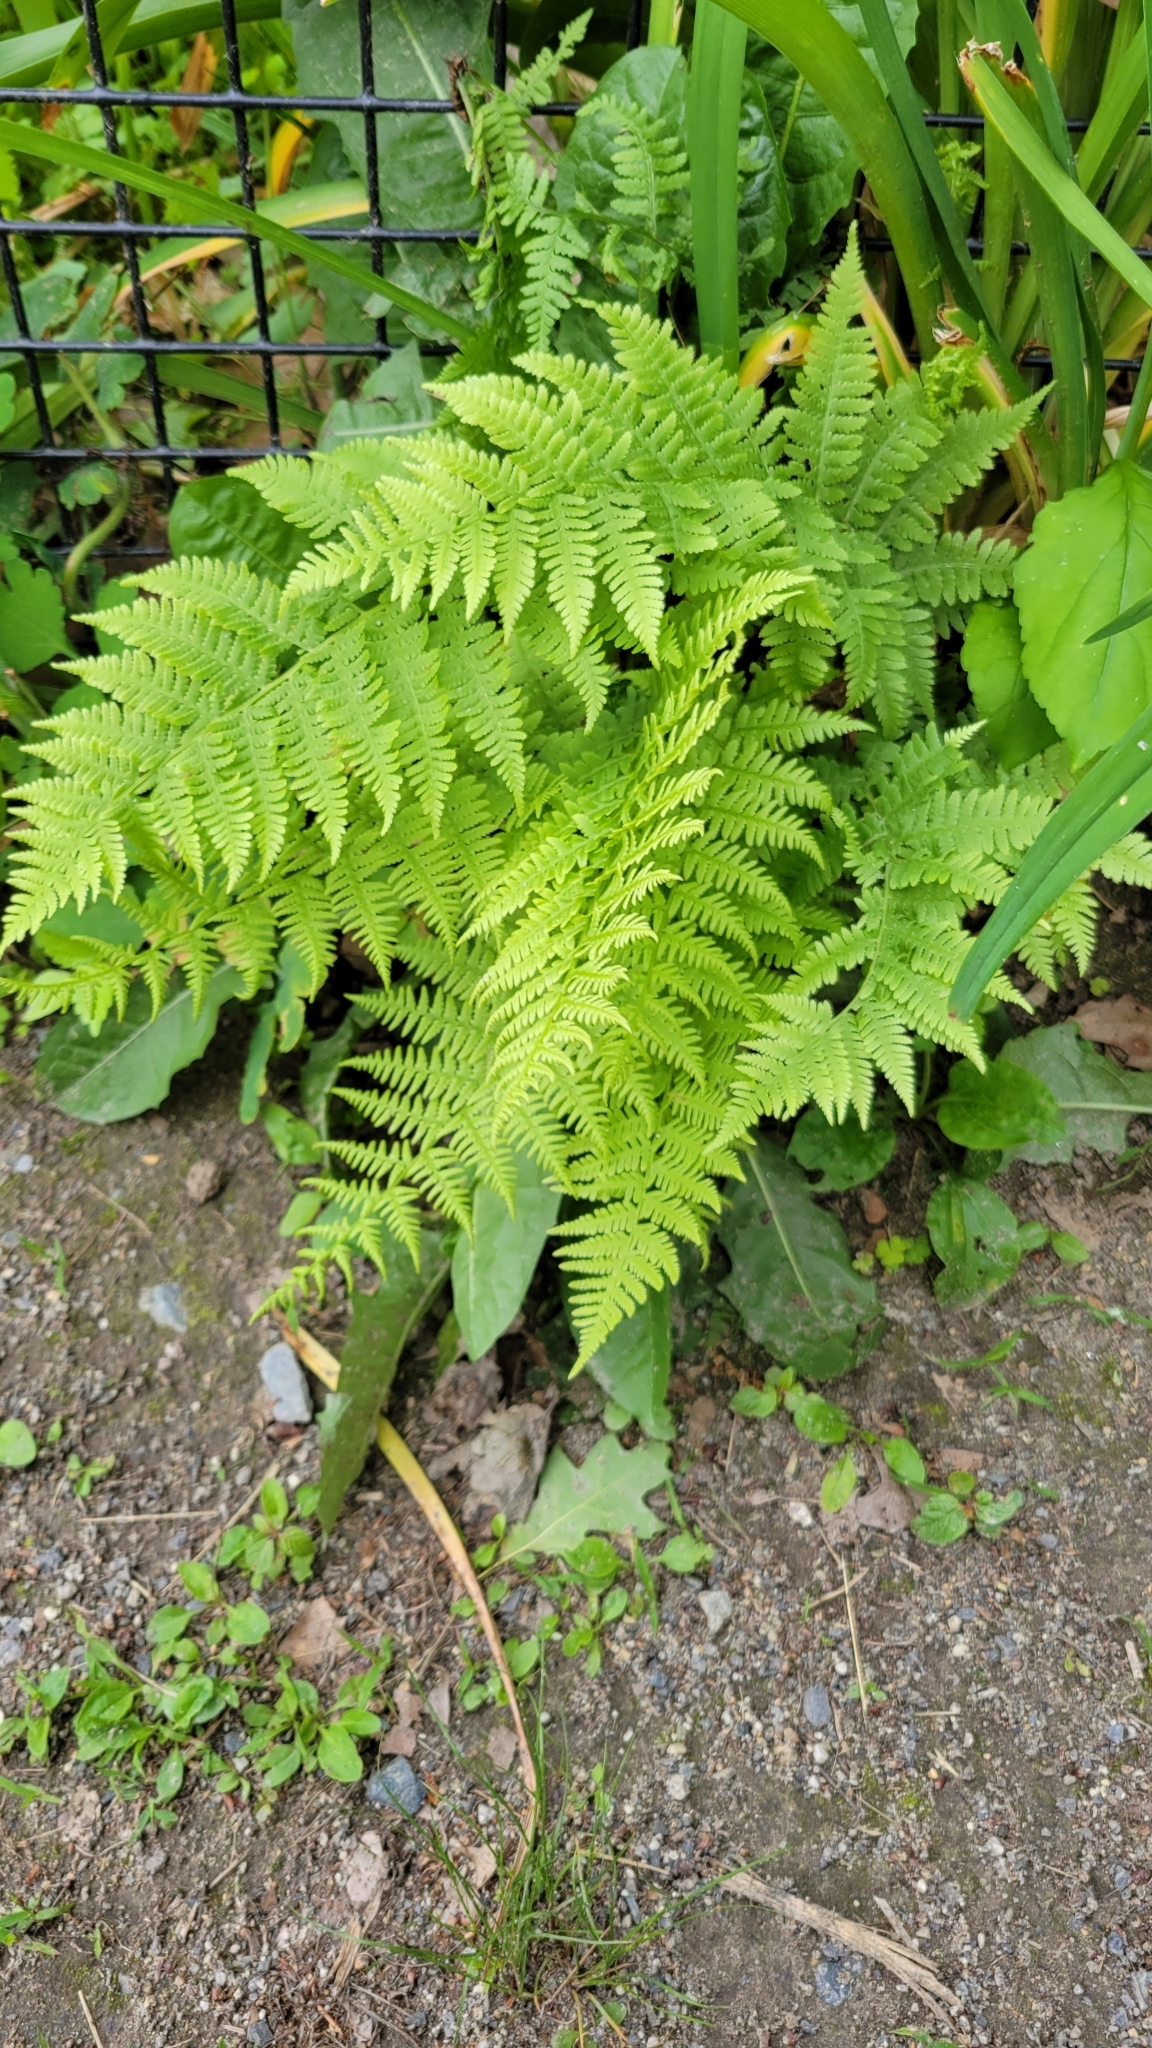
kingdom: Plantae
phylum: Tracheophyta
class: Polypodiopsida
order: Polypodiales
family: Athyriaceae
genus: Athyrium
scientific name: Athyrium angustum
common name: Northern lady fern
